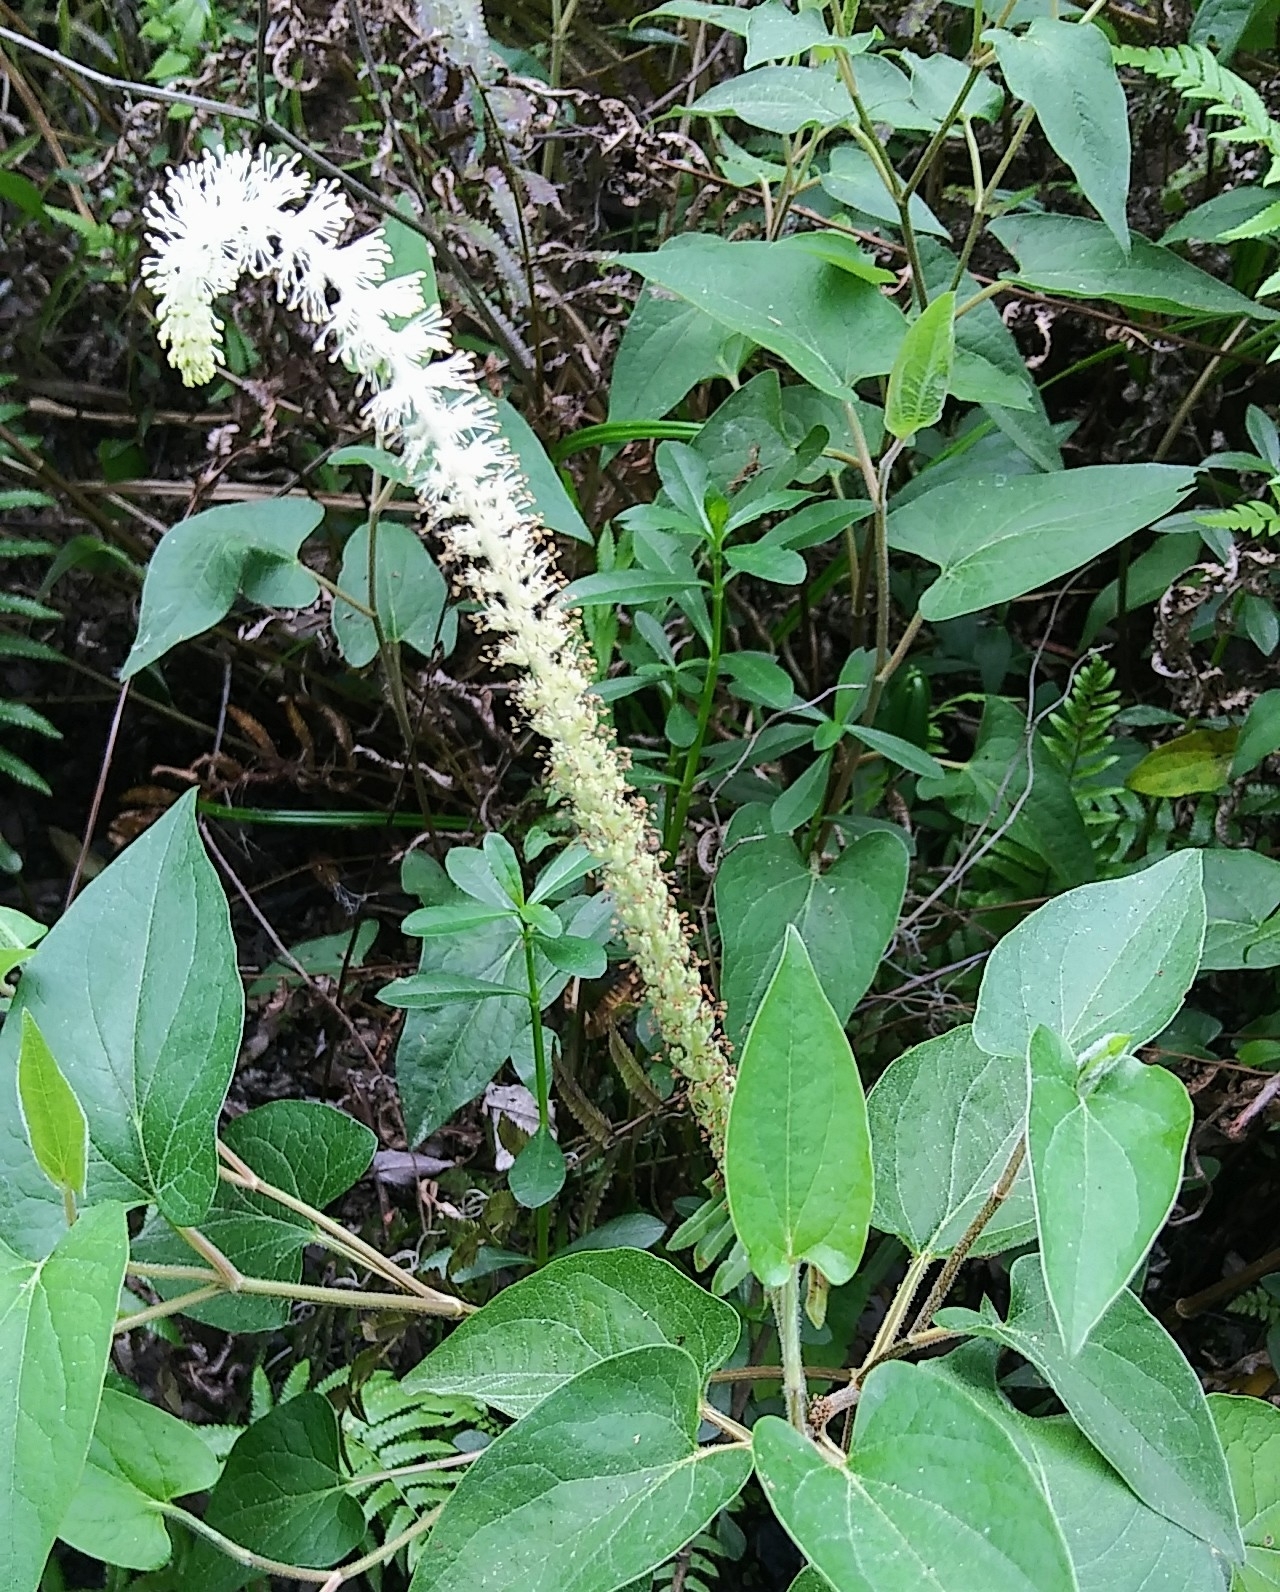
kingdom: Plantae
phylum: Tracheophyta
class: Magnoliopsida
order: Piperales
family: Saururaceae
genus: Saururus
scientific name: Saururus cernuus
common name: Lizard's-tail
